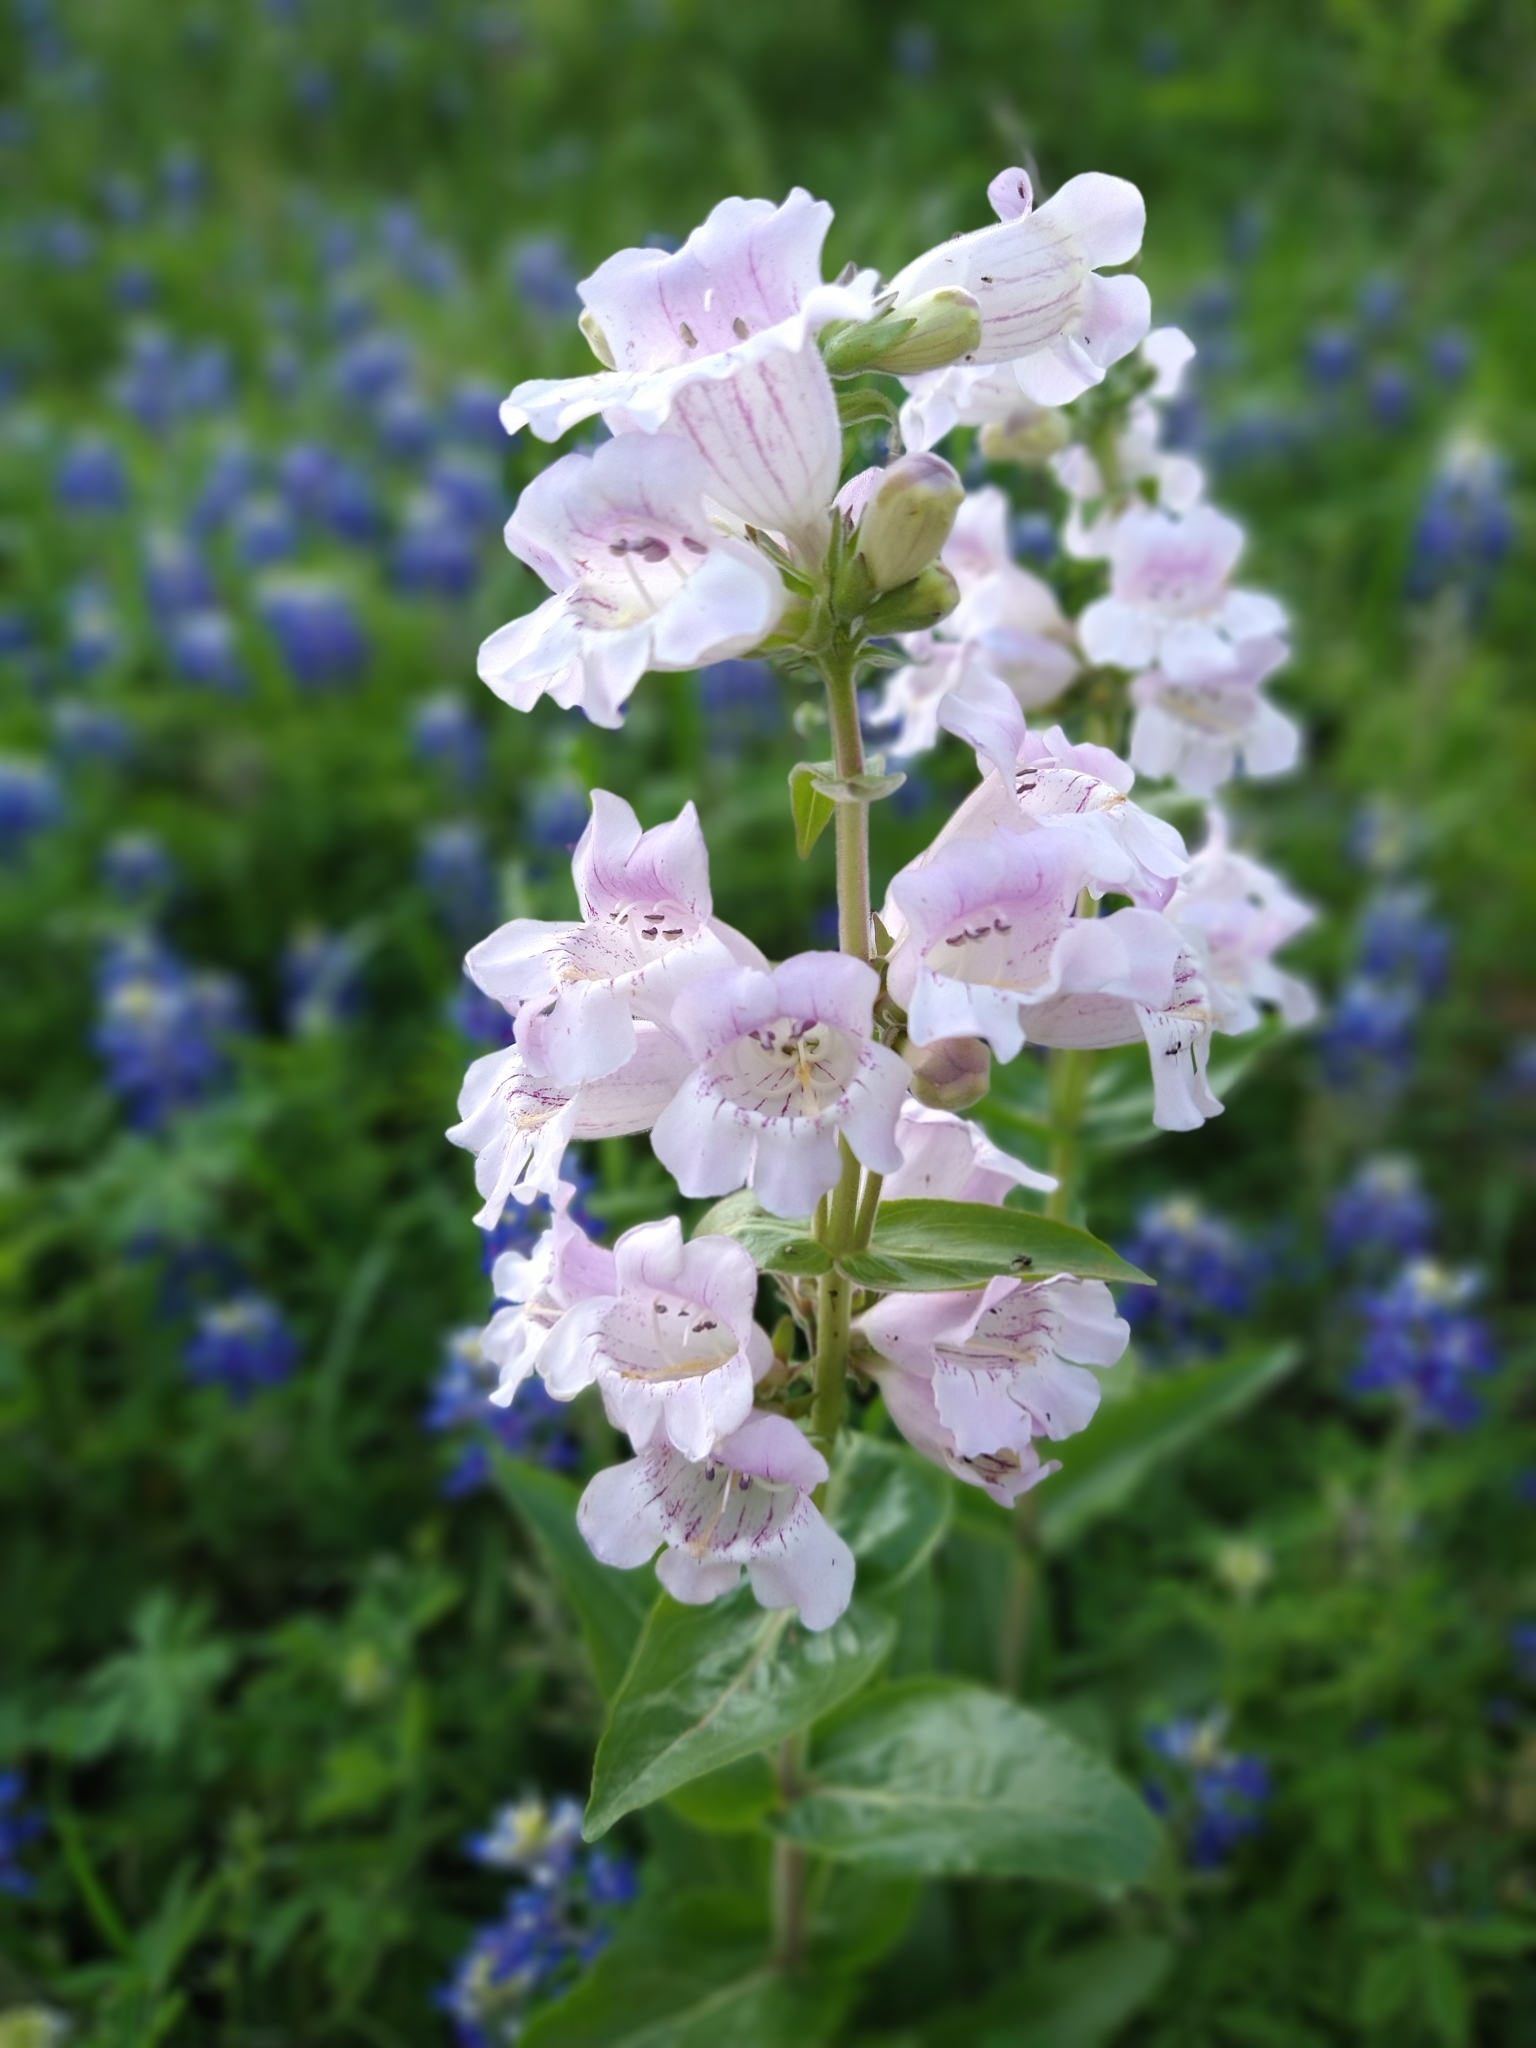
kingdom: Plantae
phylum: Tracheophyta
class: Magnoliopsida
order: Lamiales
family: Plantaginaceae
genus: Penstemon
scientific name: Penstemon cobaea
